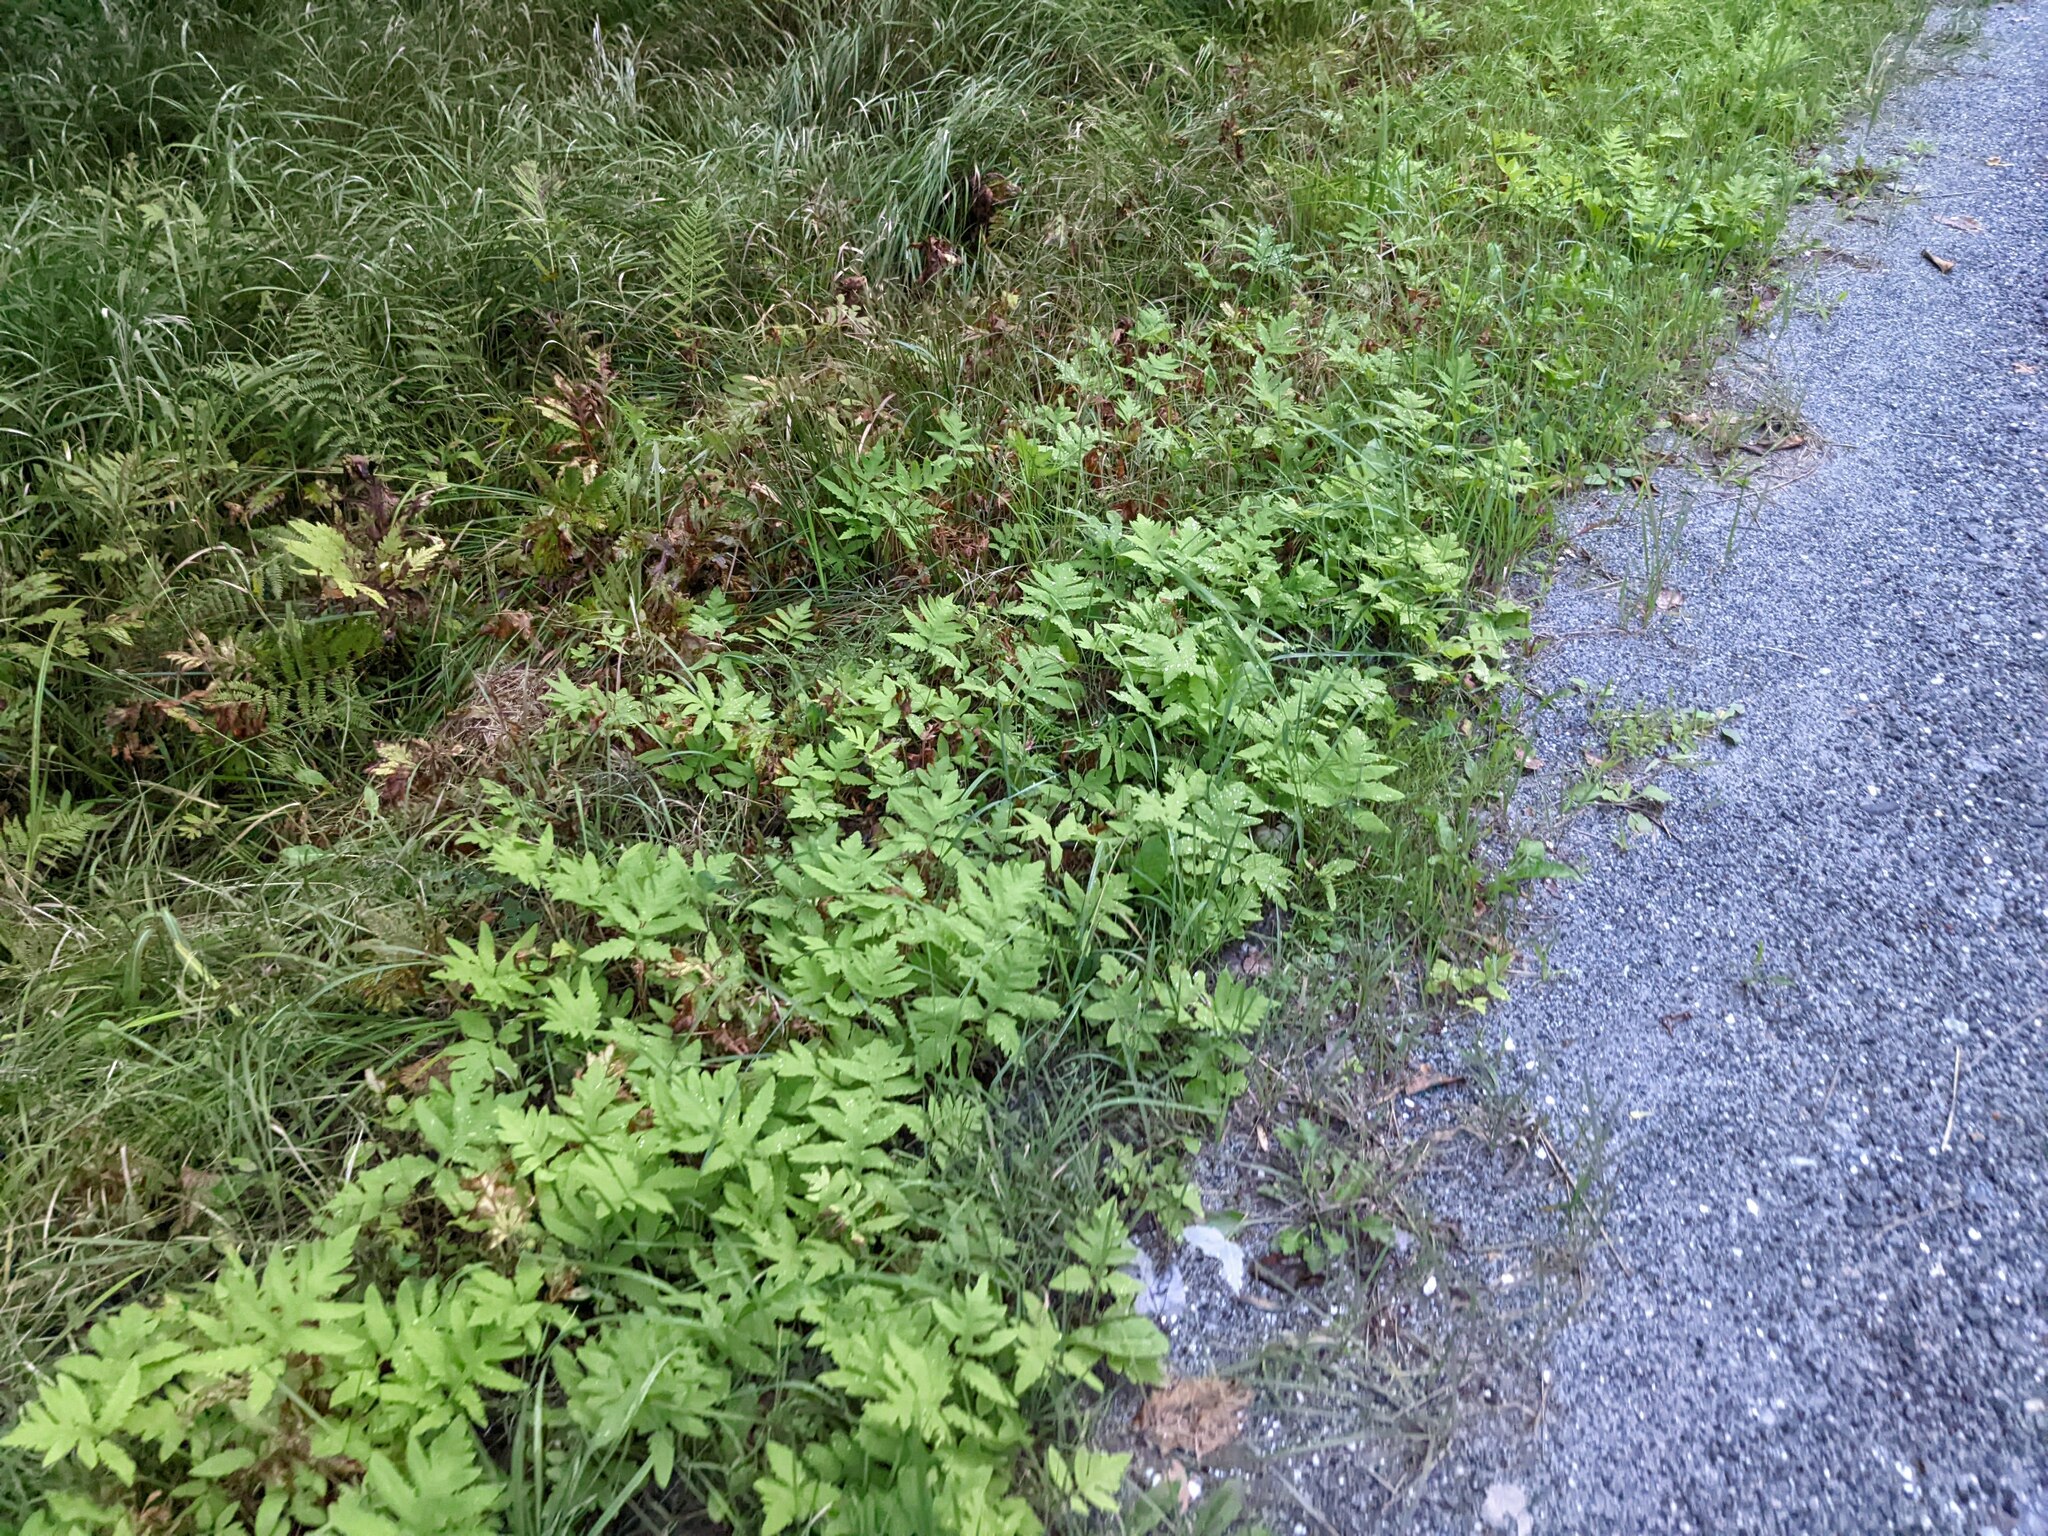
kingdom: Plantae
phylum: Tracheophyta
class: Polypodiopsida
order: Polypodiales
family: Onocleaceae
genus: Onoclea
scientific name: Onoclea sensibilis
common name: Sensitive fern
